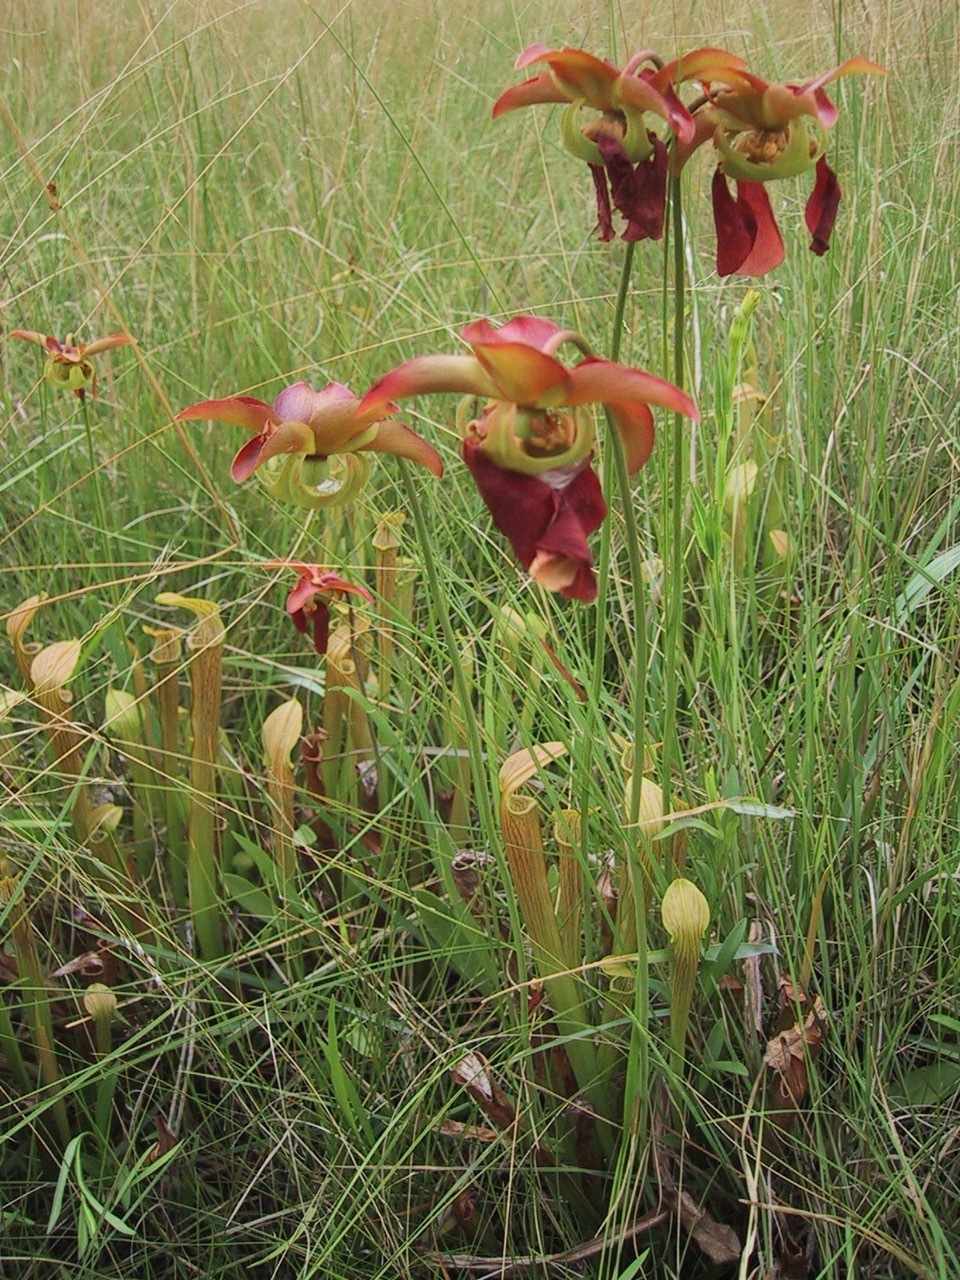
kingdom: Plantae
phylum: Tracheophyta
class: Magnoliopsida
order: Ericales
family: Sarraceniaceae
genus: Sarracenia
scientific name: Sarracenia rubra
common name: Sweet pitcherplant
